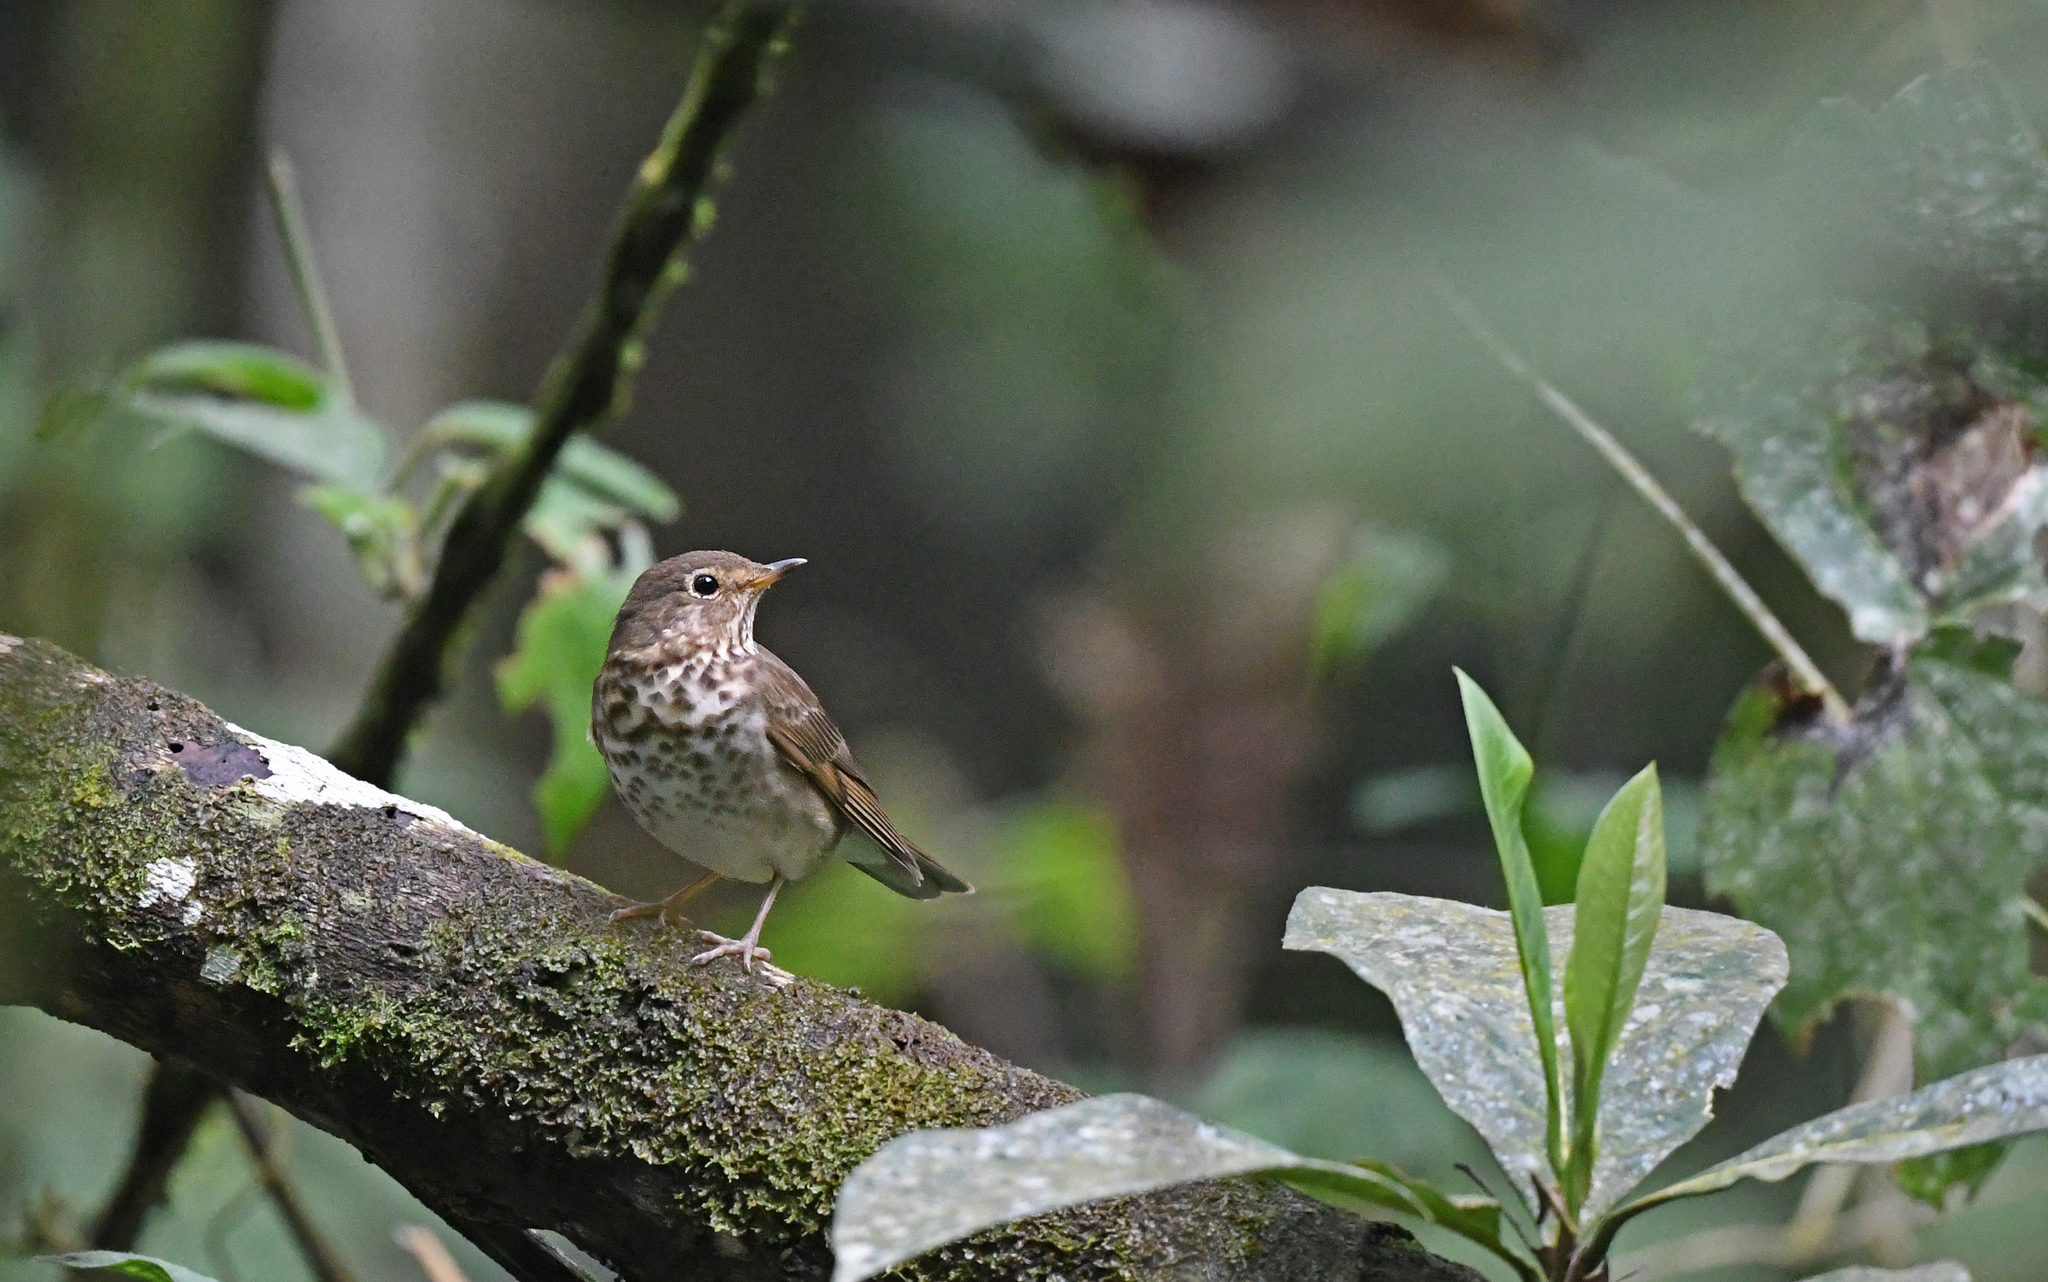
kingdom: Animalia
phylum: Chordata
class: Aves
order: Passeriformes
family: Turdidae
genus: Catharus
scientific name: Catharus ustulatus
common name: Swainson's thrush
